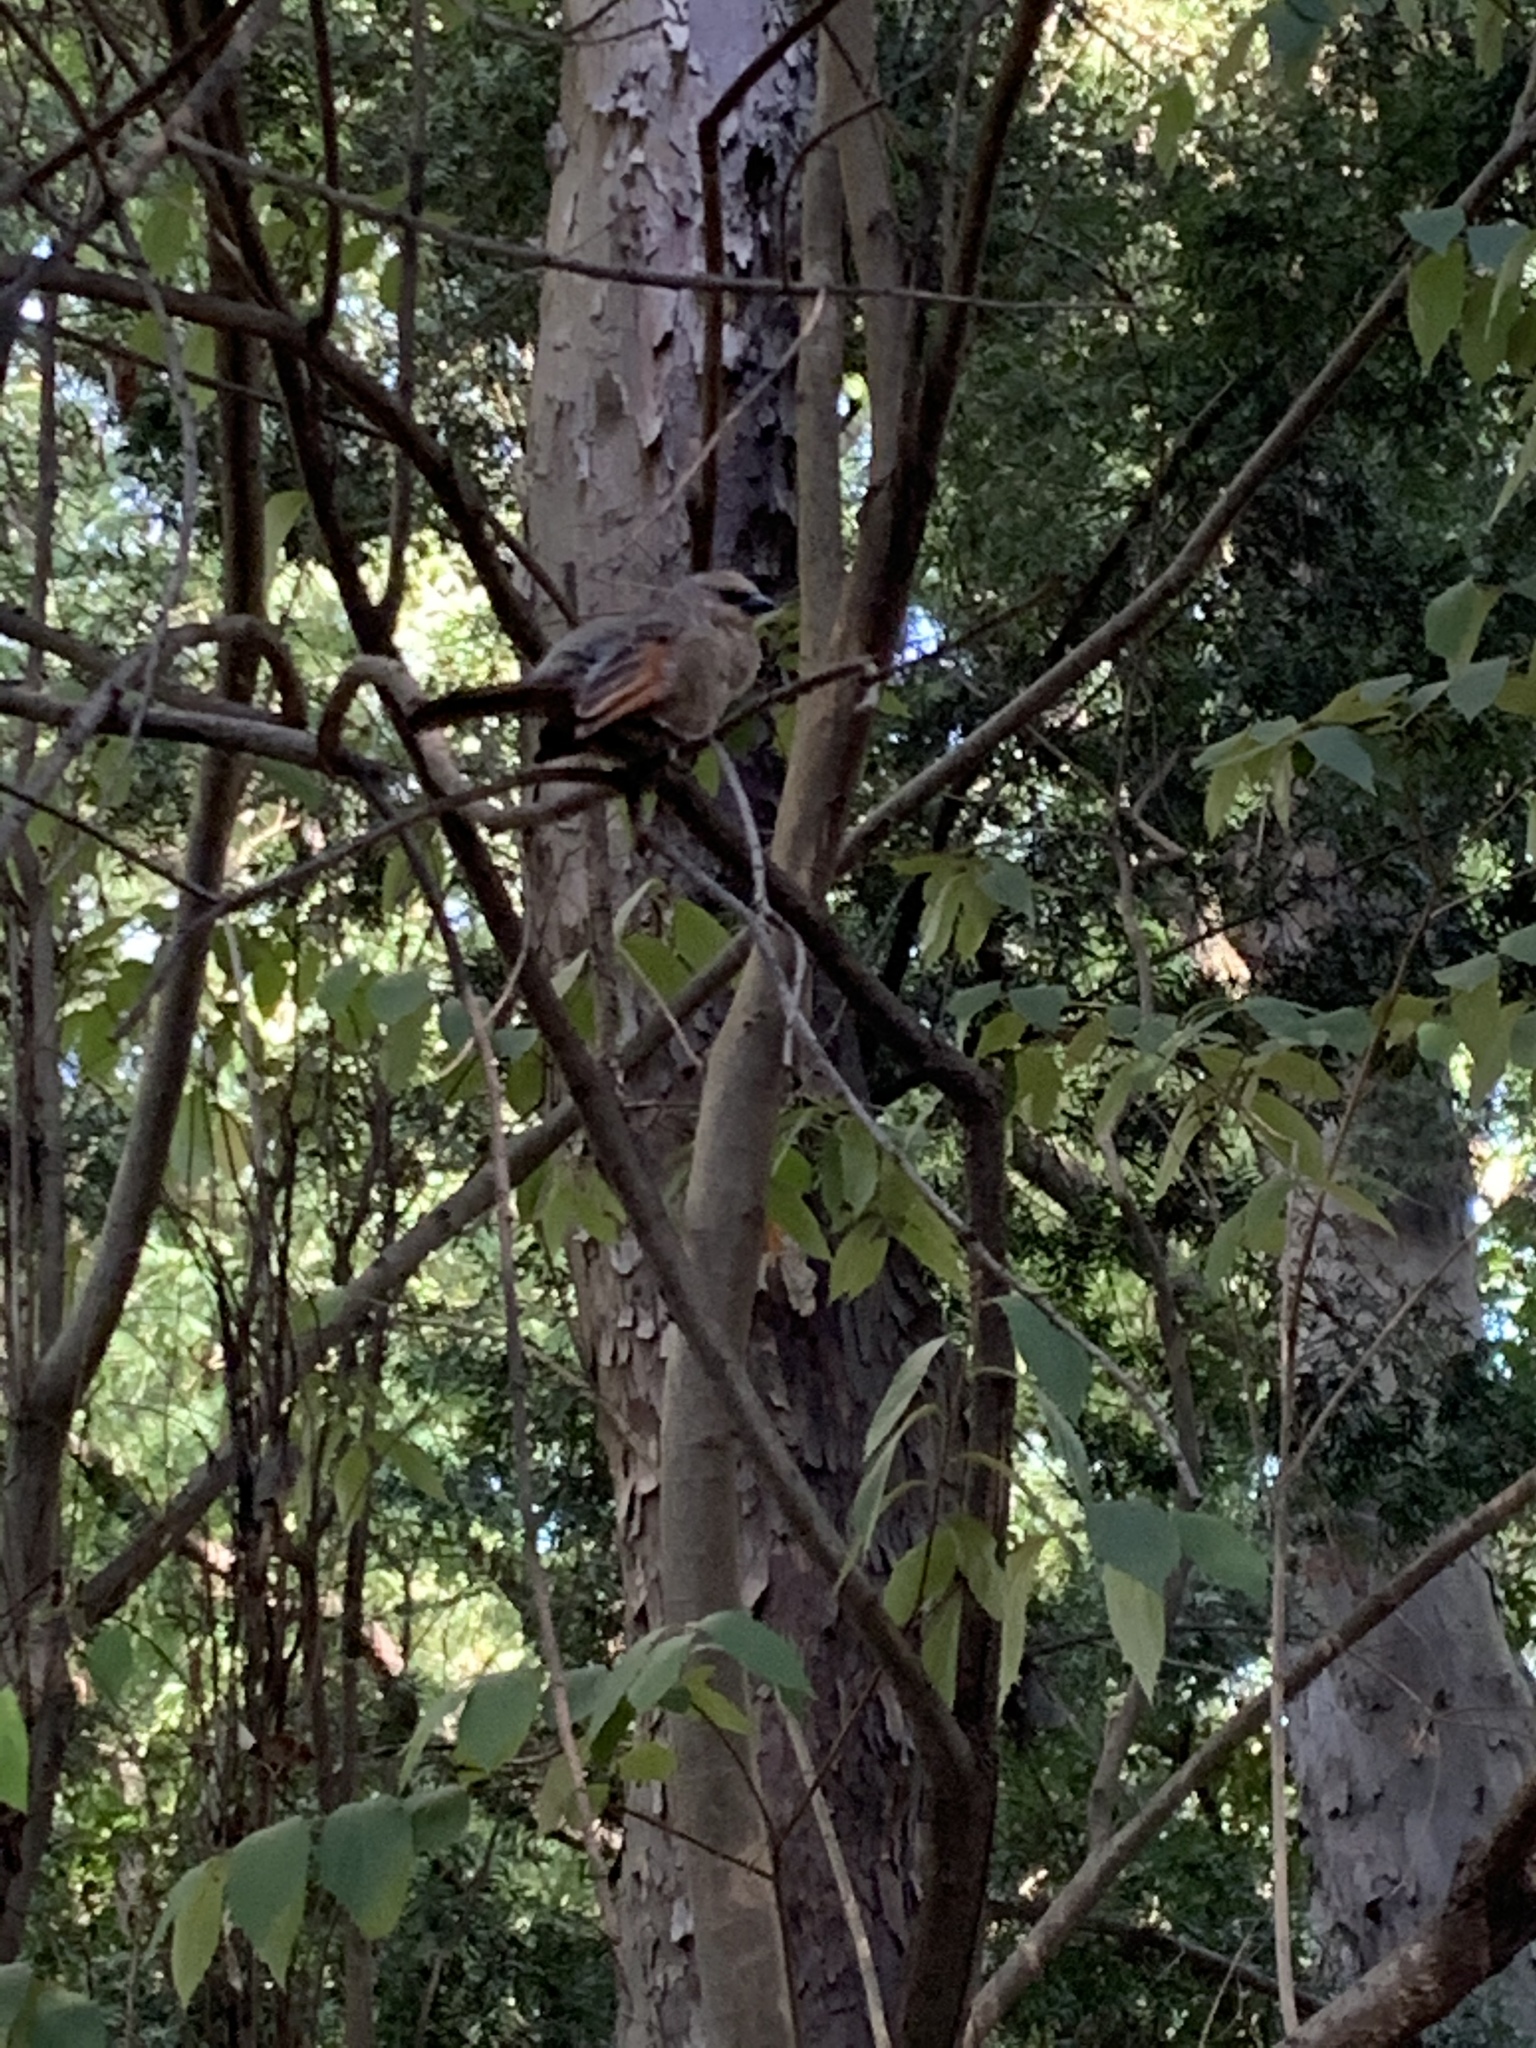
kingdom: Animalia
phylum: Chordata
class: Aves
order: Passeriformes
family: Icteridae
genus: Agelaioides
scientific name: Agelaioides badius
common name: Baywing
